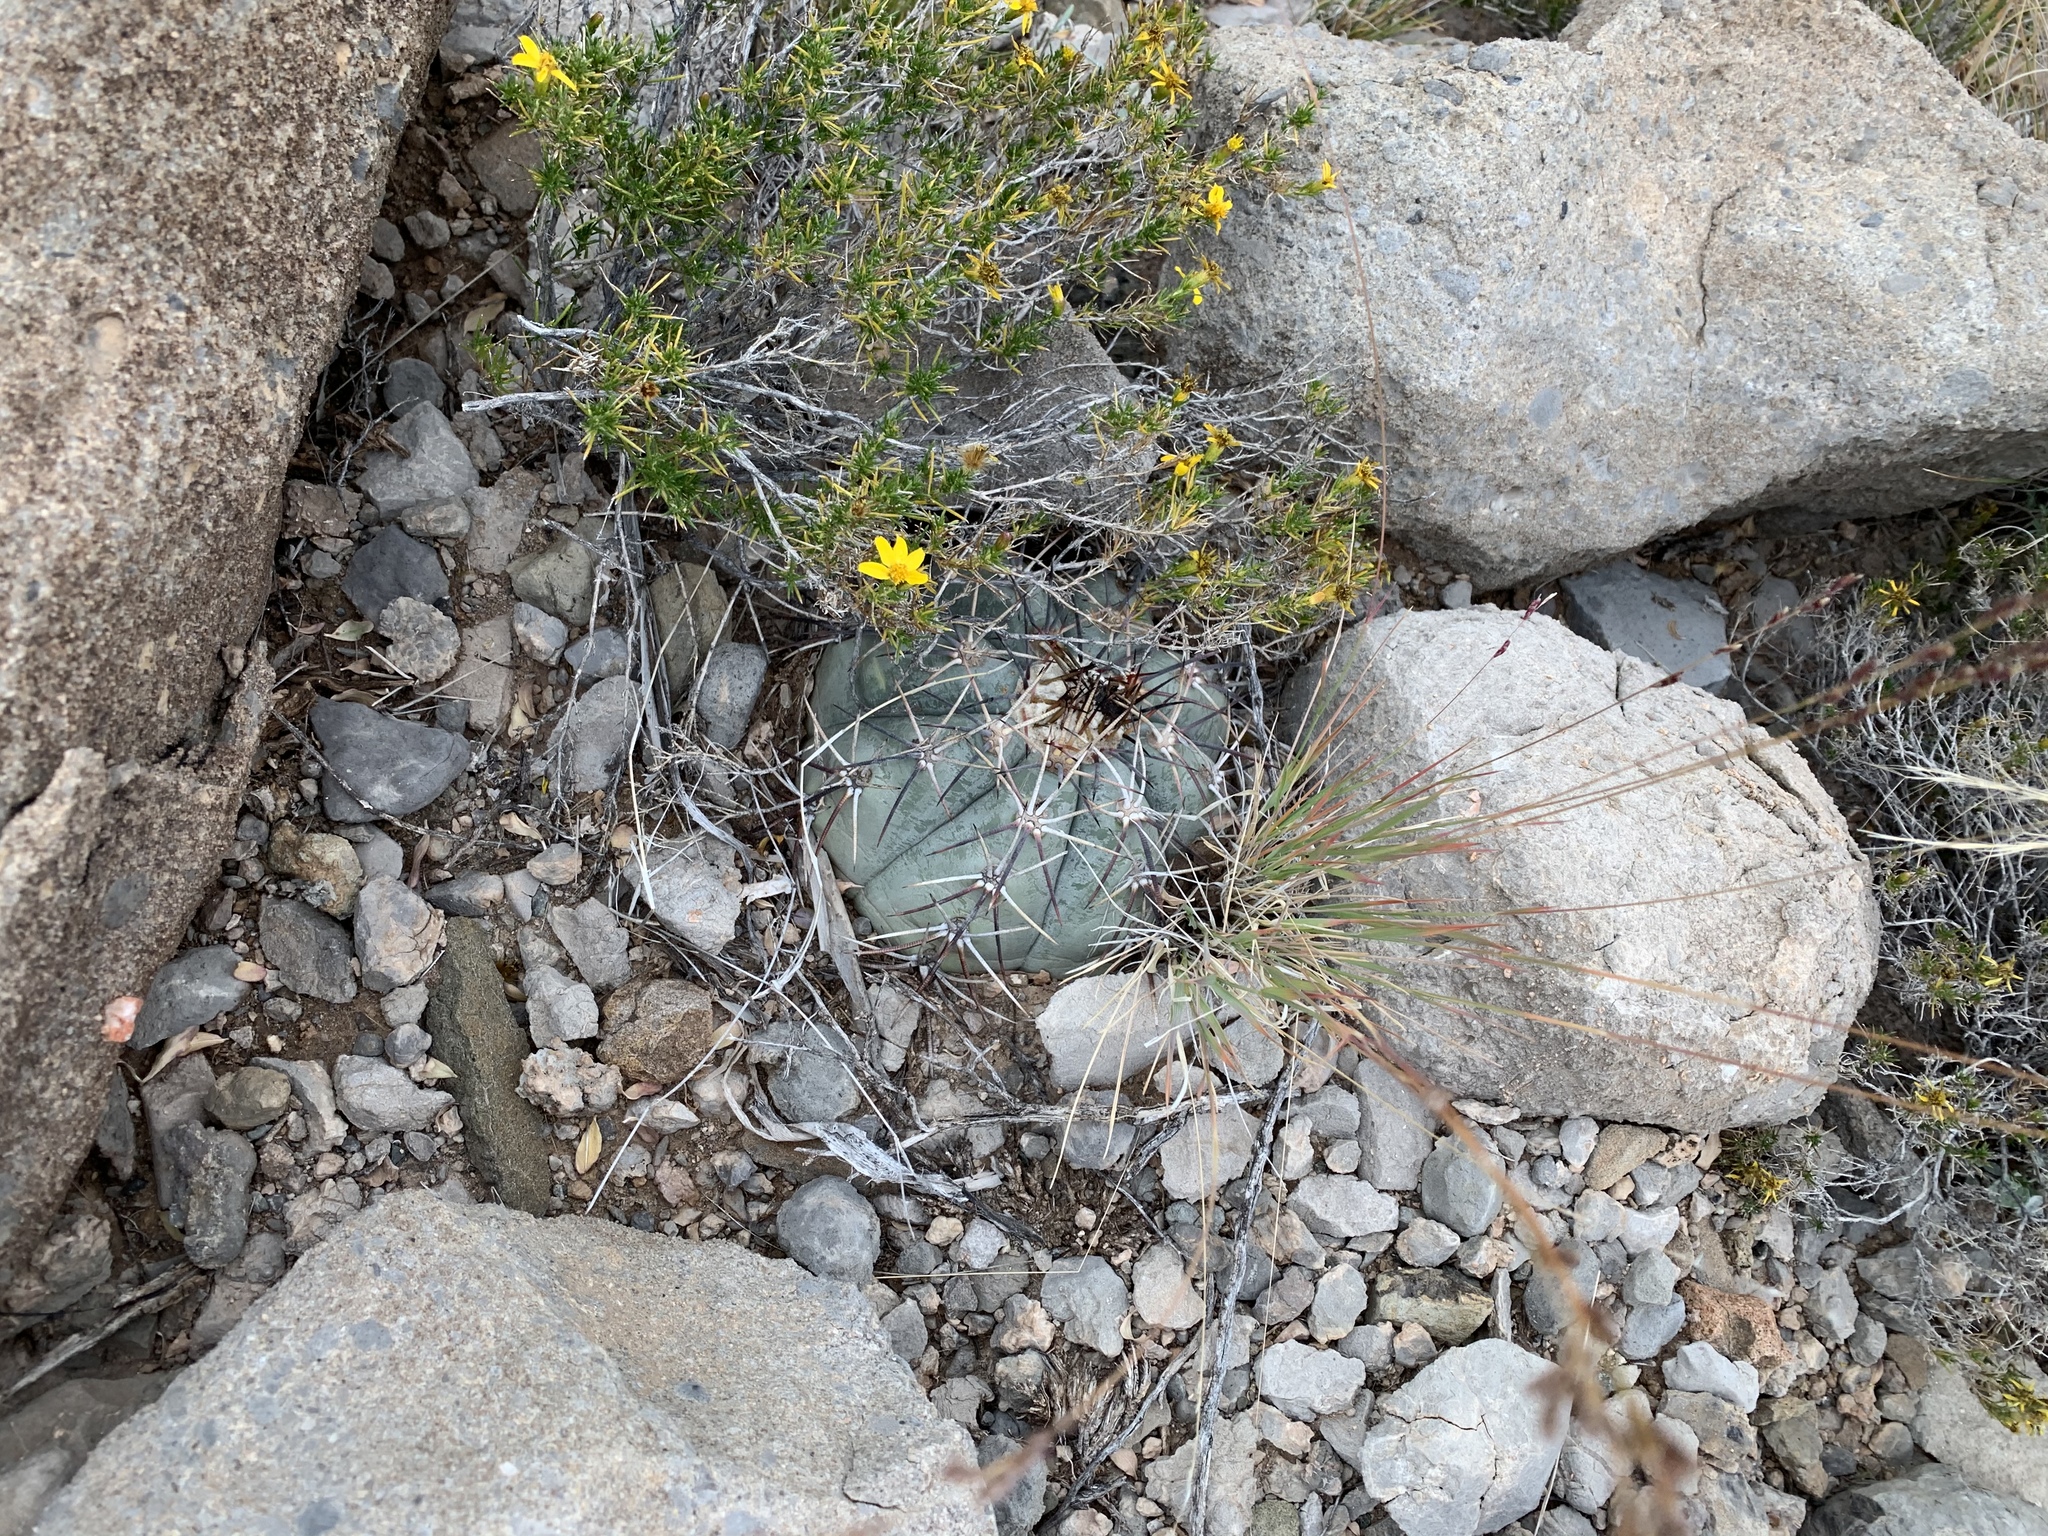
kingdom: Plantae
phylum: Tracheophyta
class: Magnoliopsida
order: Caryophyllales
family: Cactaceae
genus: Echinocactus
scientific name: Echinocactus horizonthalonius
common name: Devilshead
